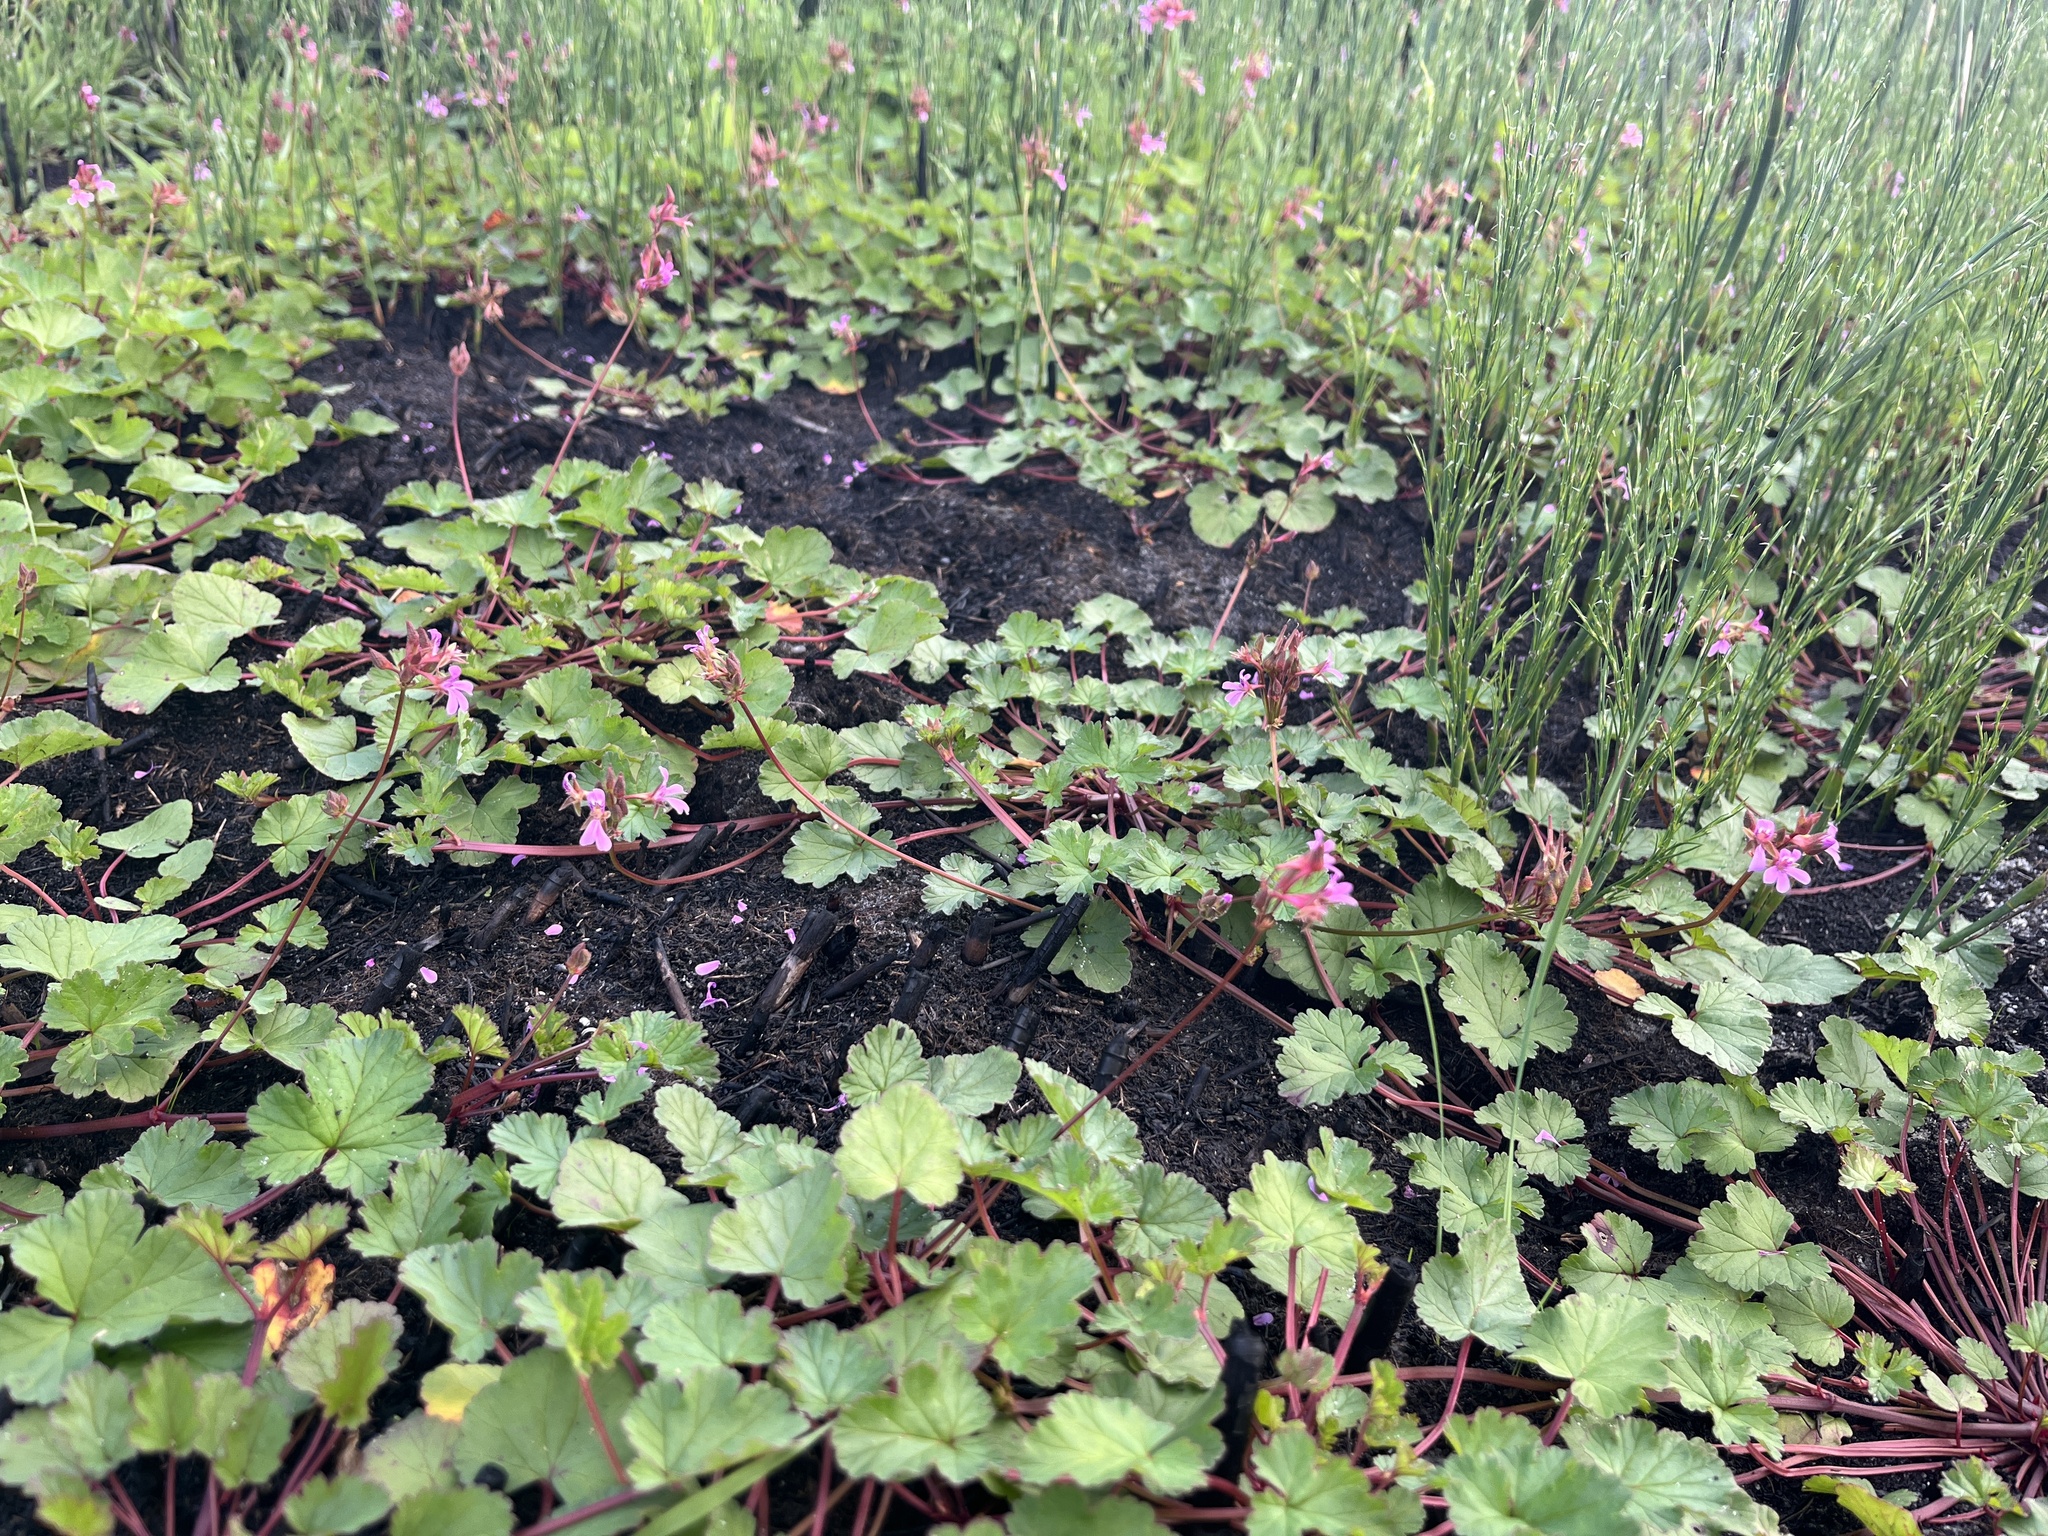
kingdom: Plantae
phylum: Tracheophyta
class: Magnoliopsida
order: Geraniales
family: Geraniaceae
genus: Pelargonium
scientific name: Pelargonium grossularioides
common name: Gooseberry geranium
